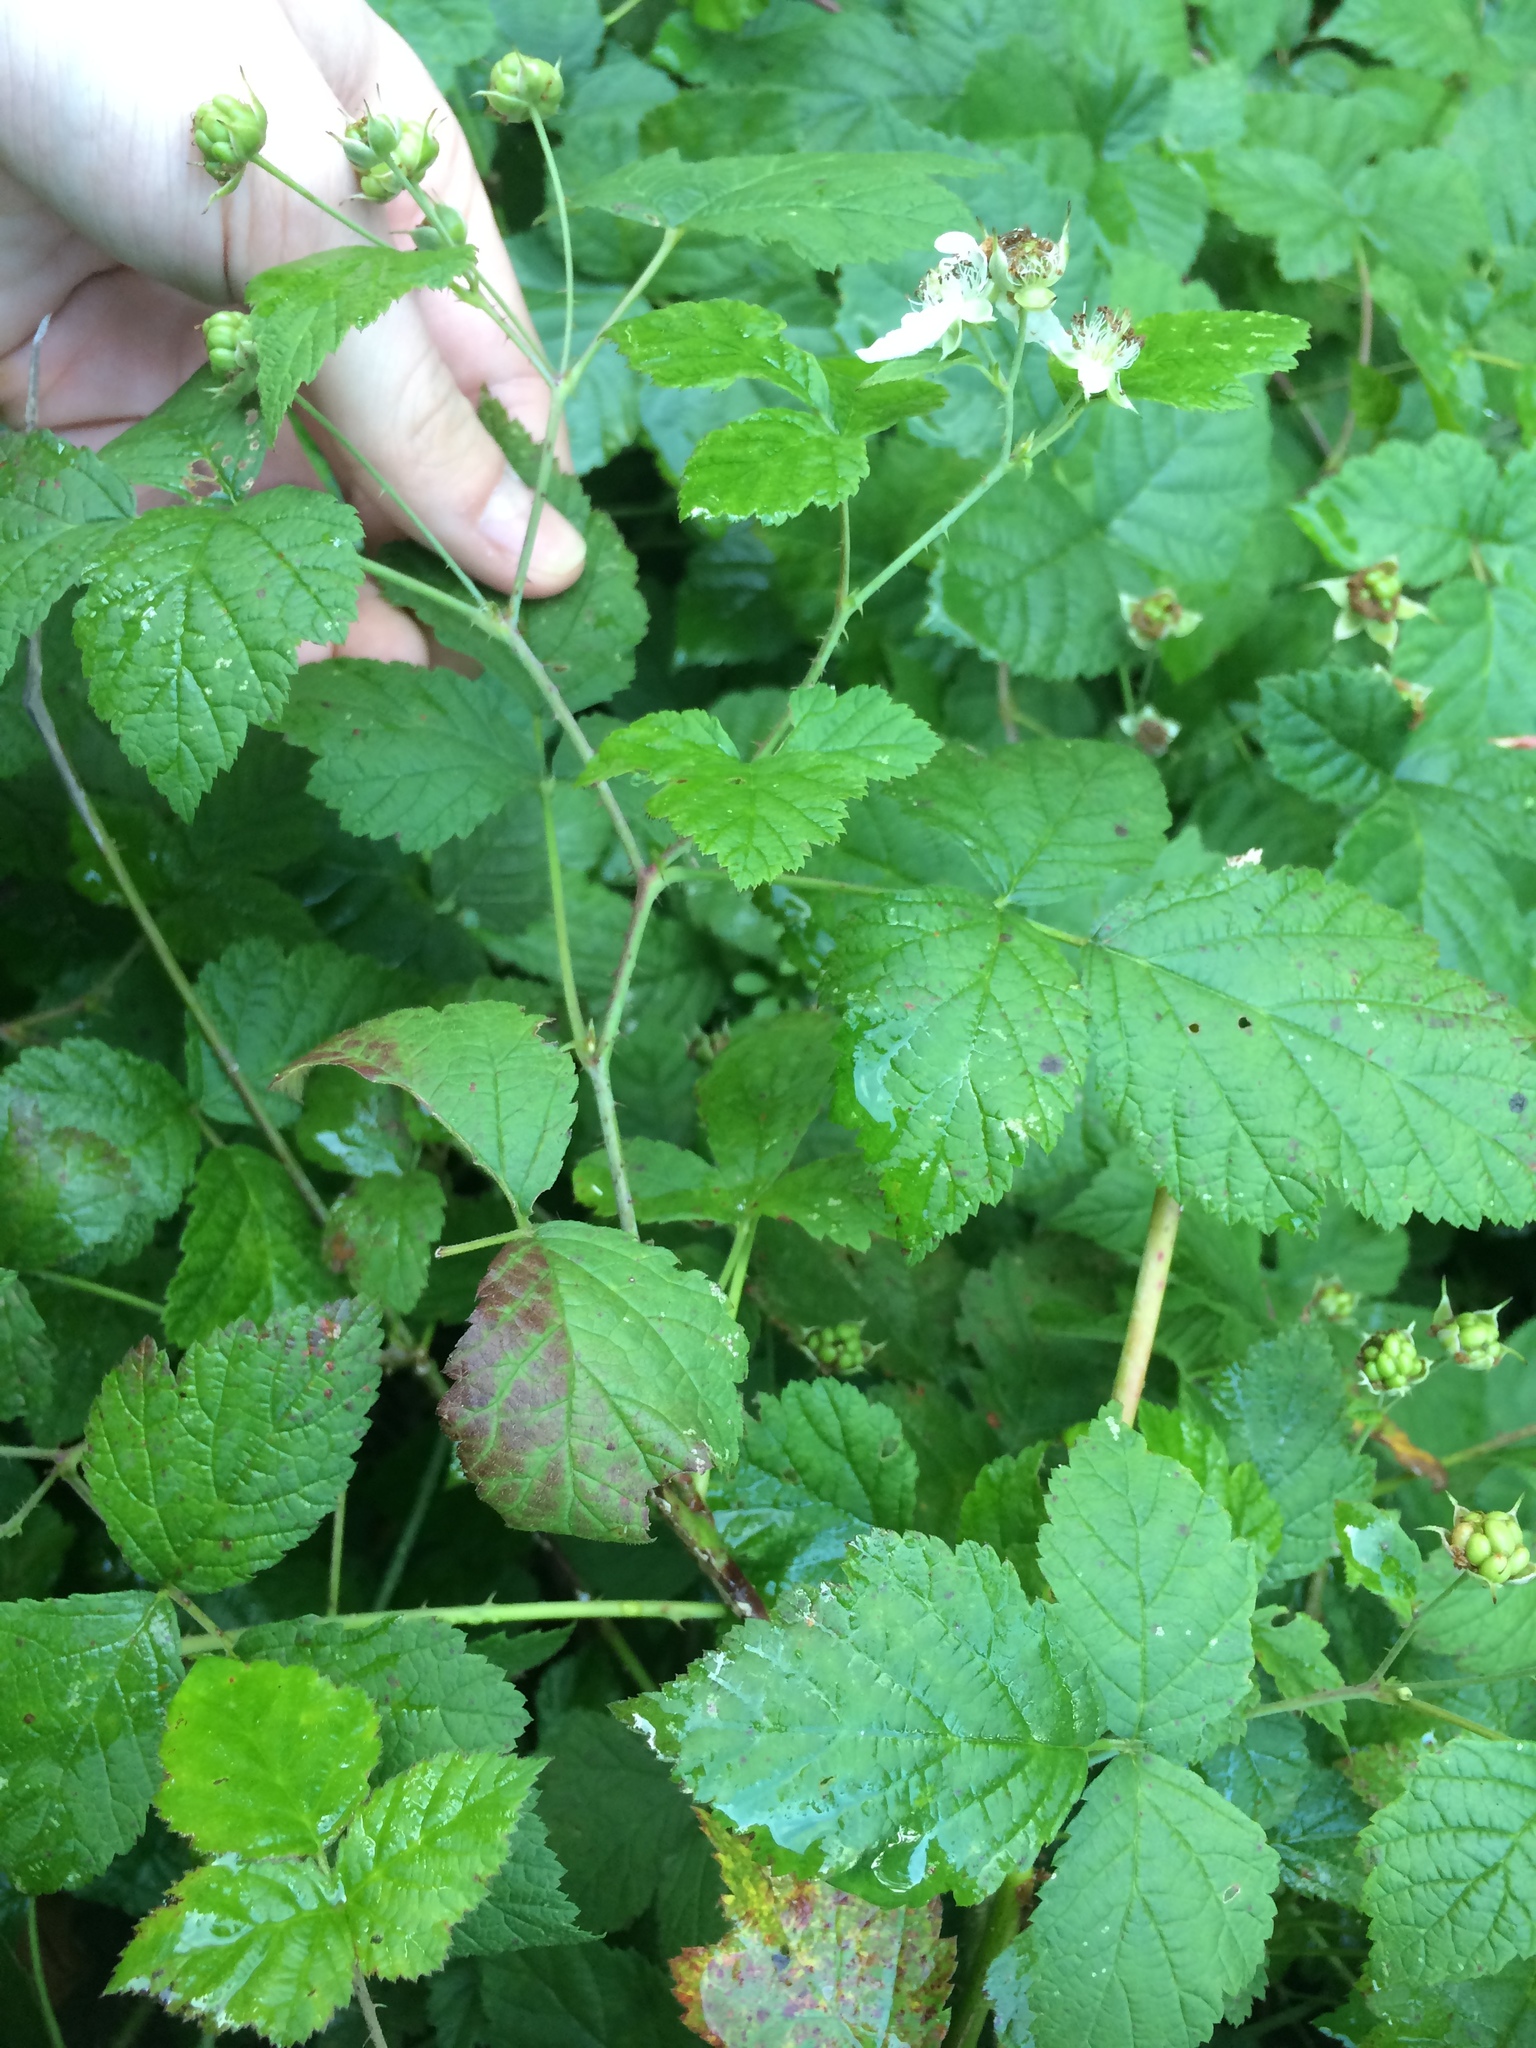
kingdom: Plantae
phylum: Tracheophyta
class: Magnoliopsida
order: Rosales
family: Rosaceae
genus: Rubus
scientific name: Rubus caesius
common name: Dewberry
